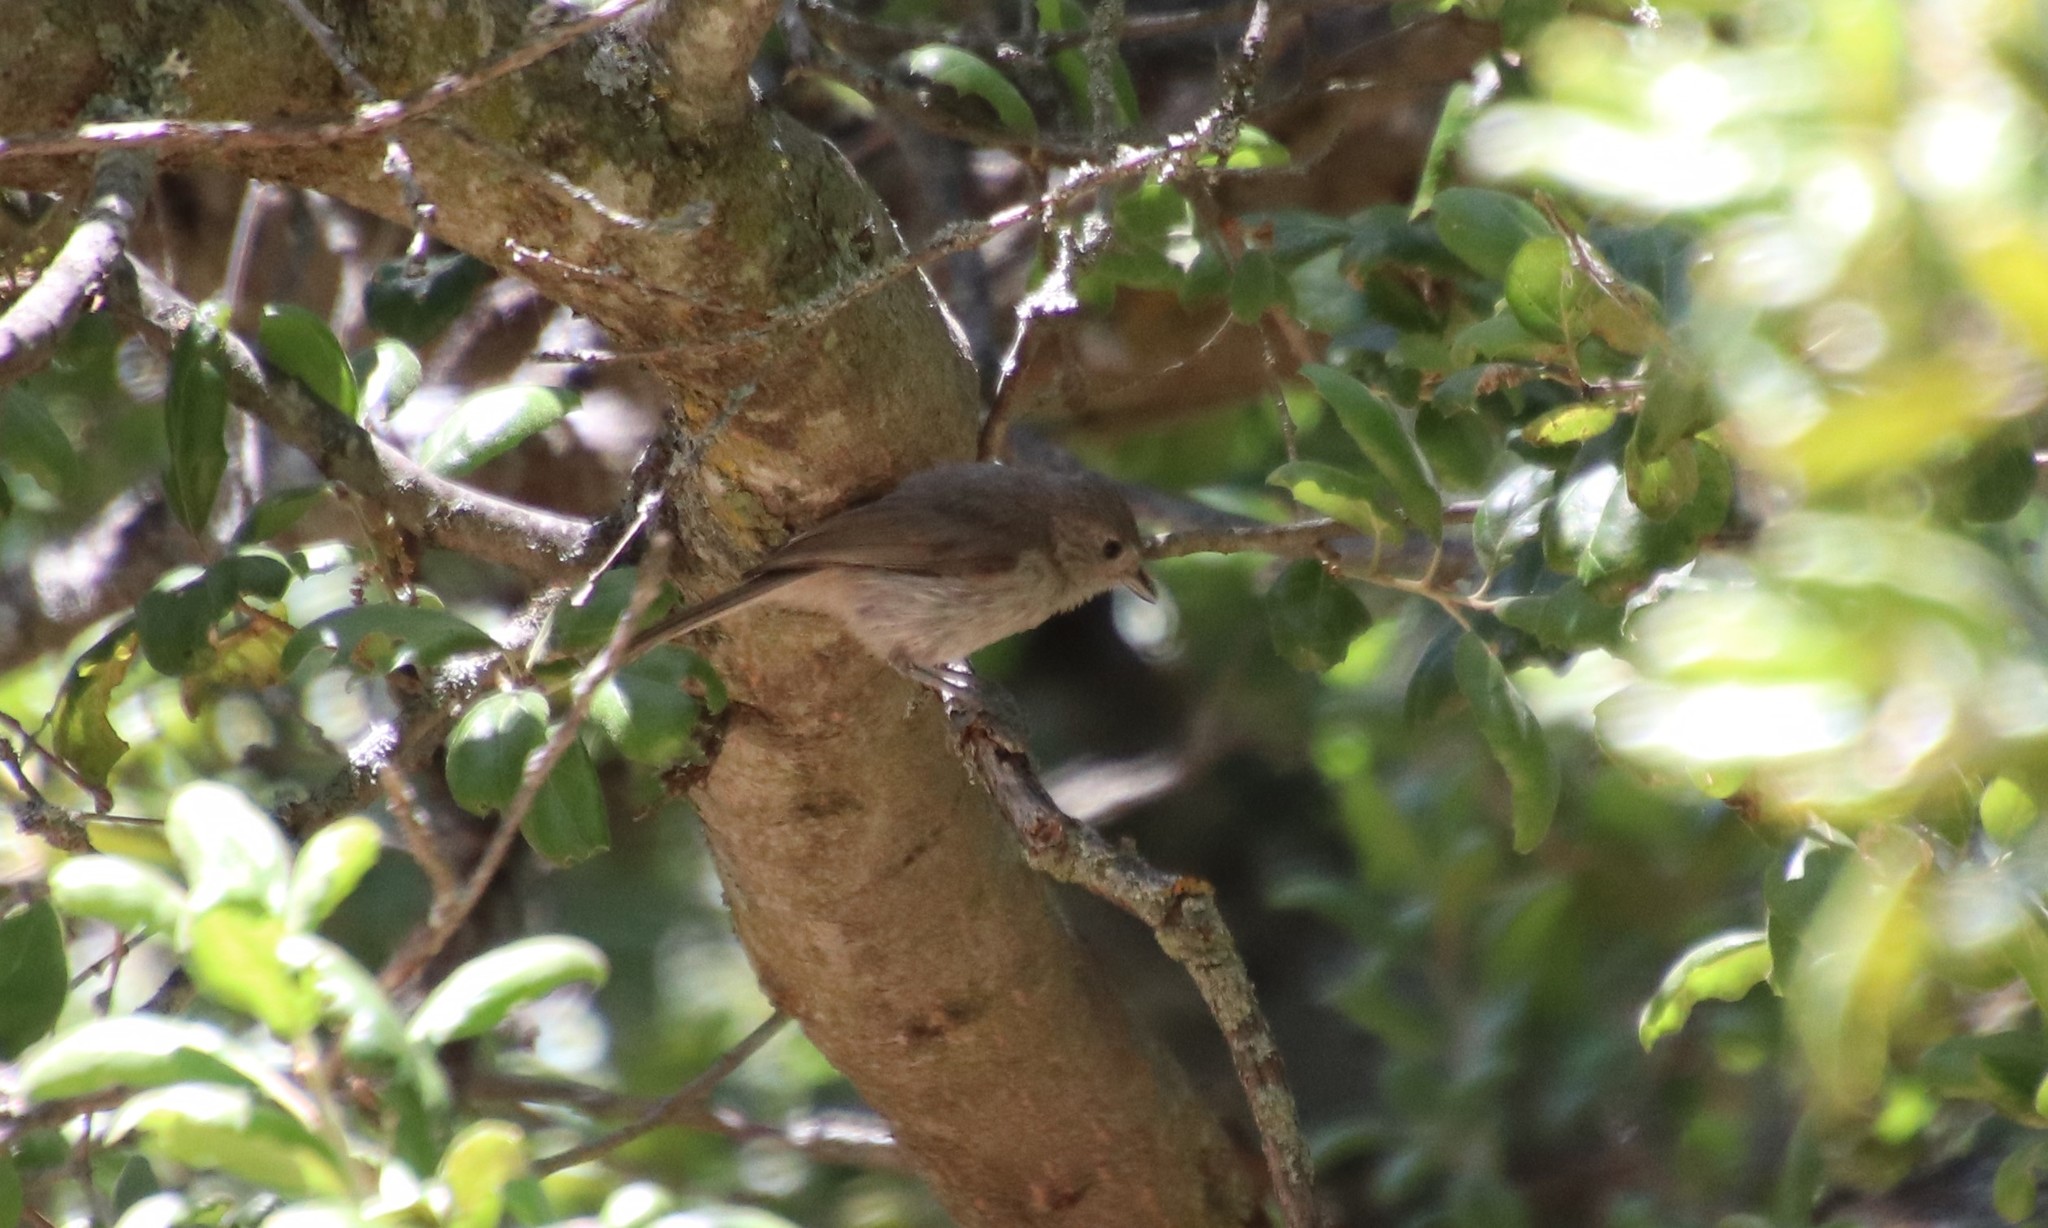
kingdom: Animalia
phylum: Chordata
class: Aves
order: Passeriformes
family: Paridae
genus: Baeolophus
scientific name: Baeolophus inornatus
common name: Oak titmouse
